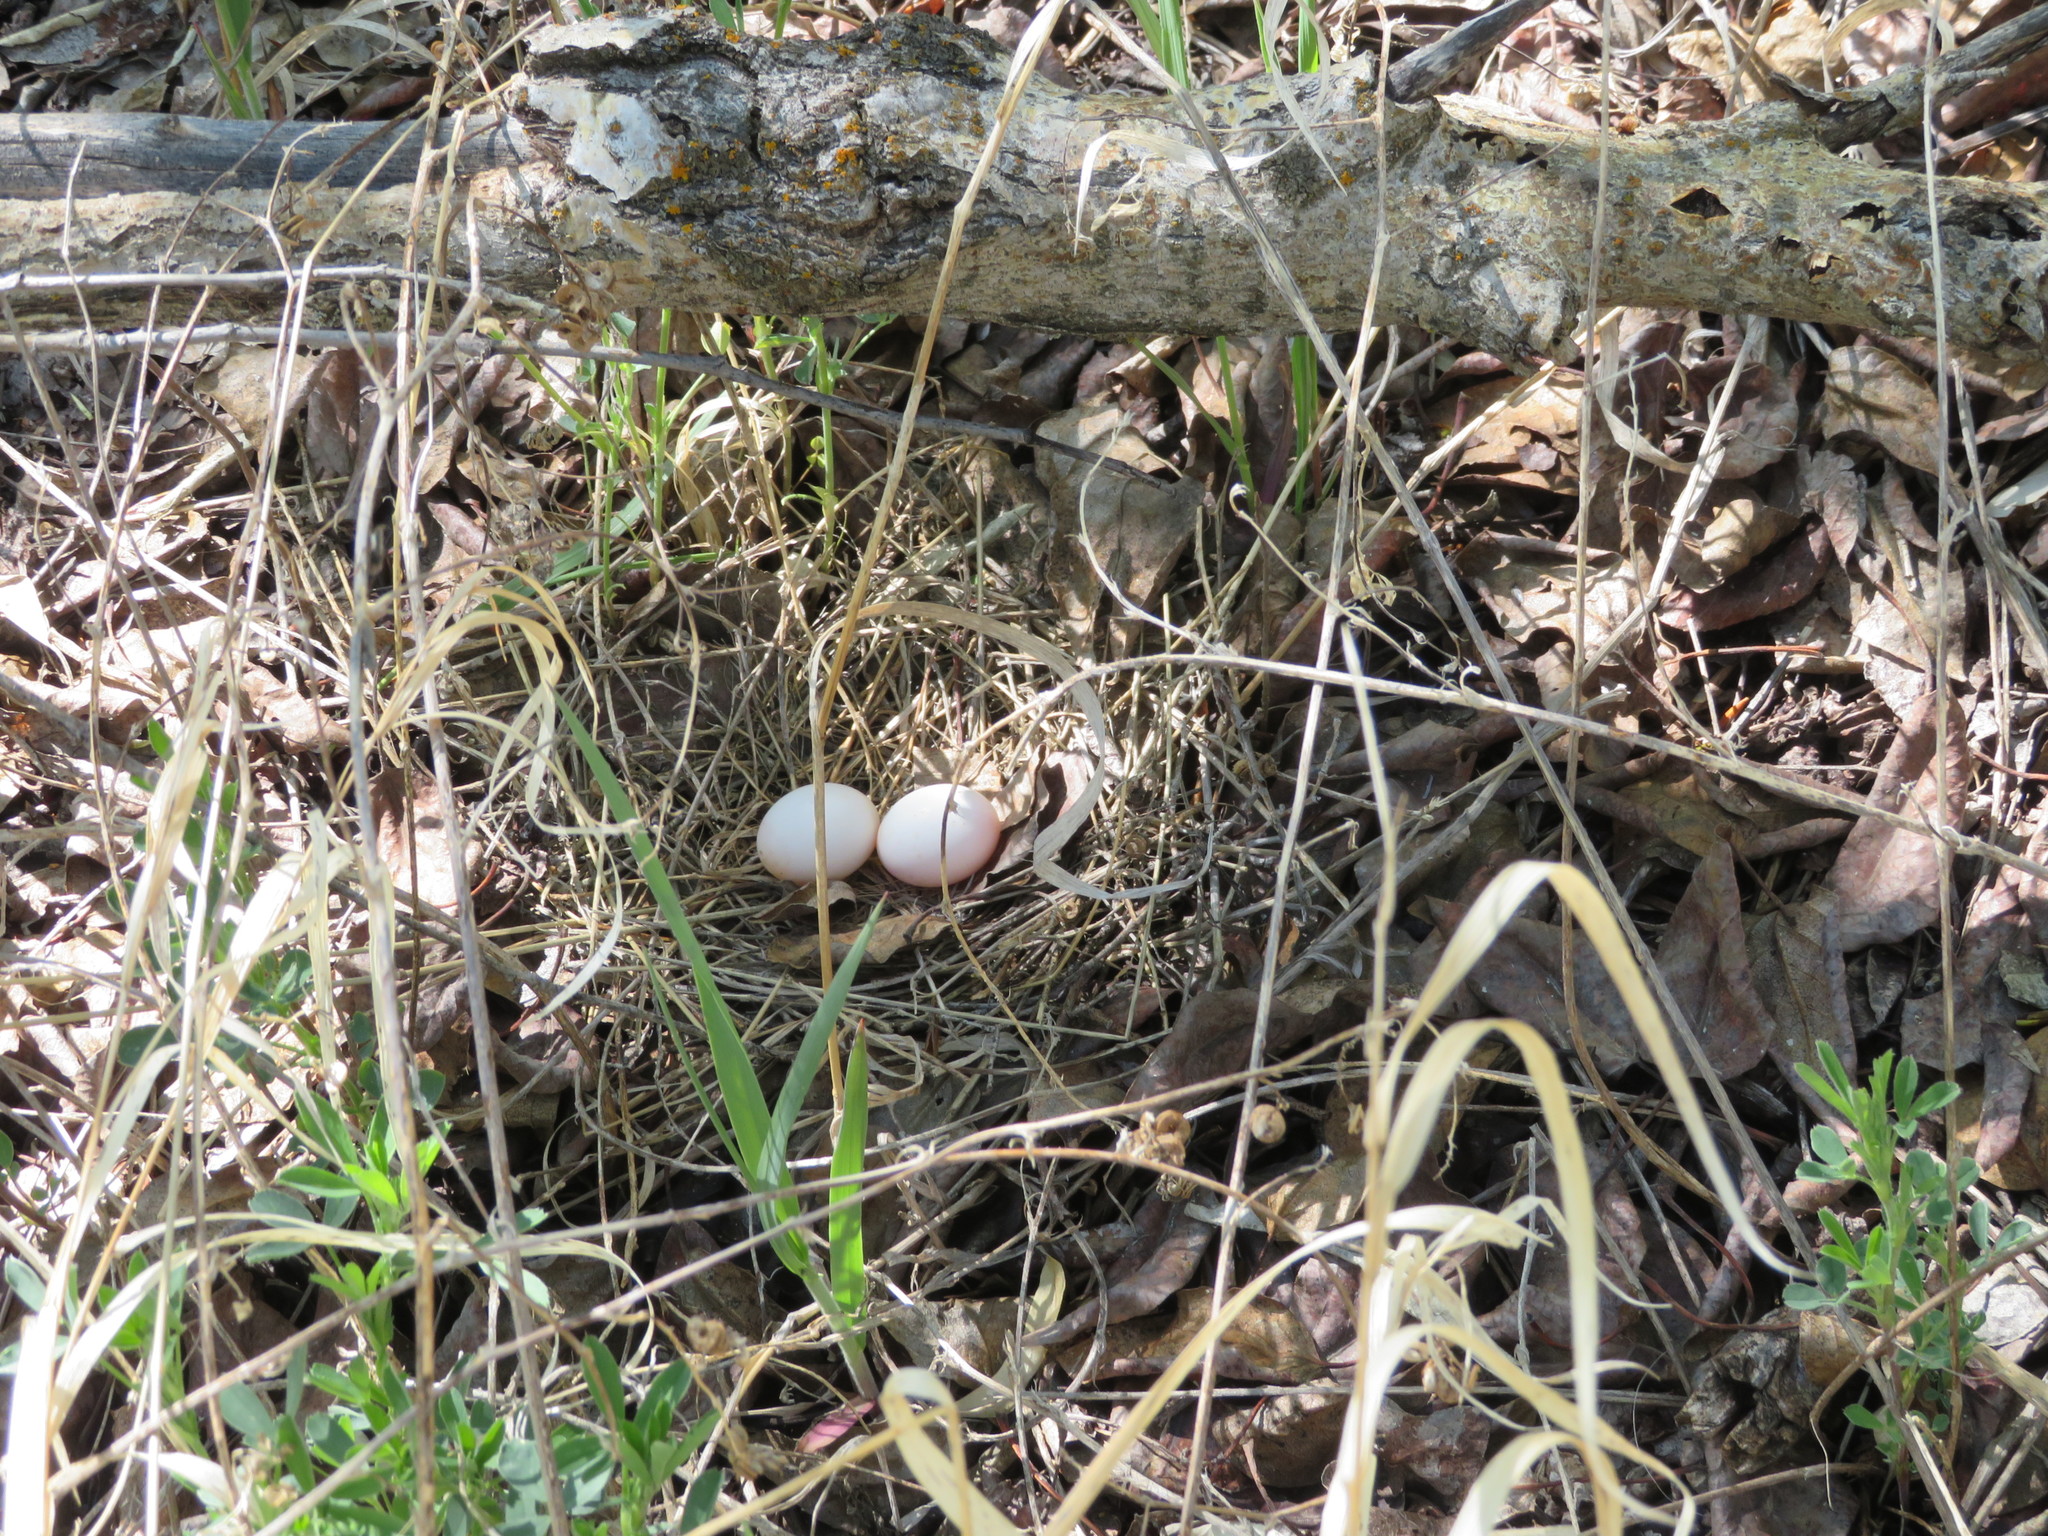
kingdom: Animalia
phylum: Chordata
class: Aves
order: Columbiformes
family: Columbidae
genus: Zenaida
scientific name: Zenaida macroura
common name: Mourning dove
